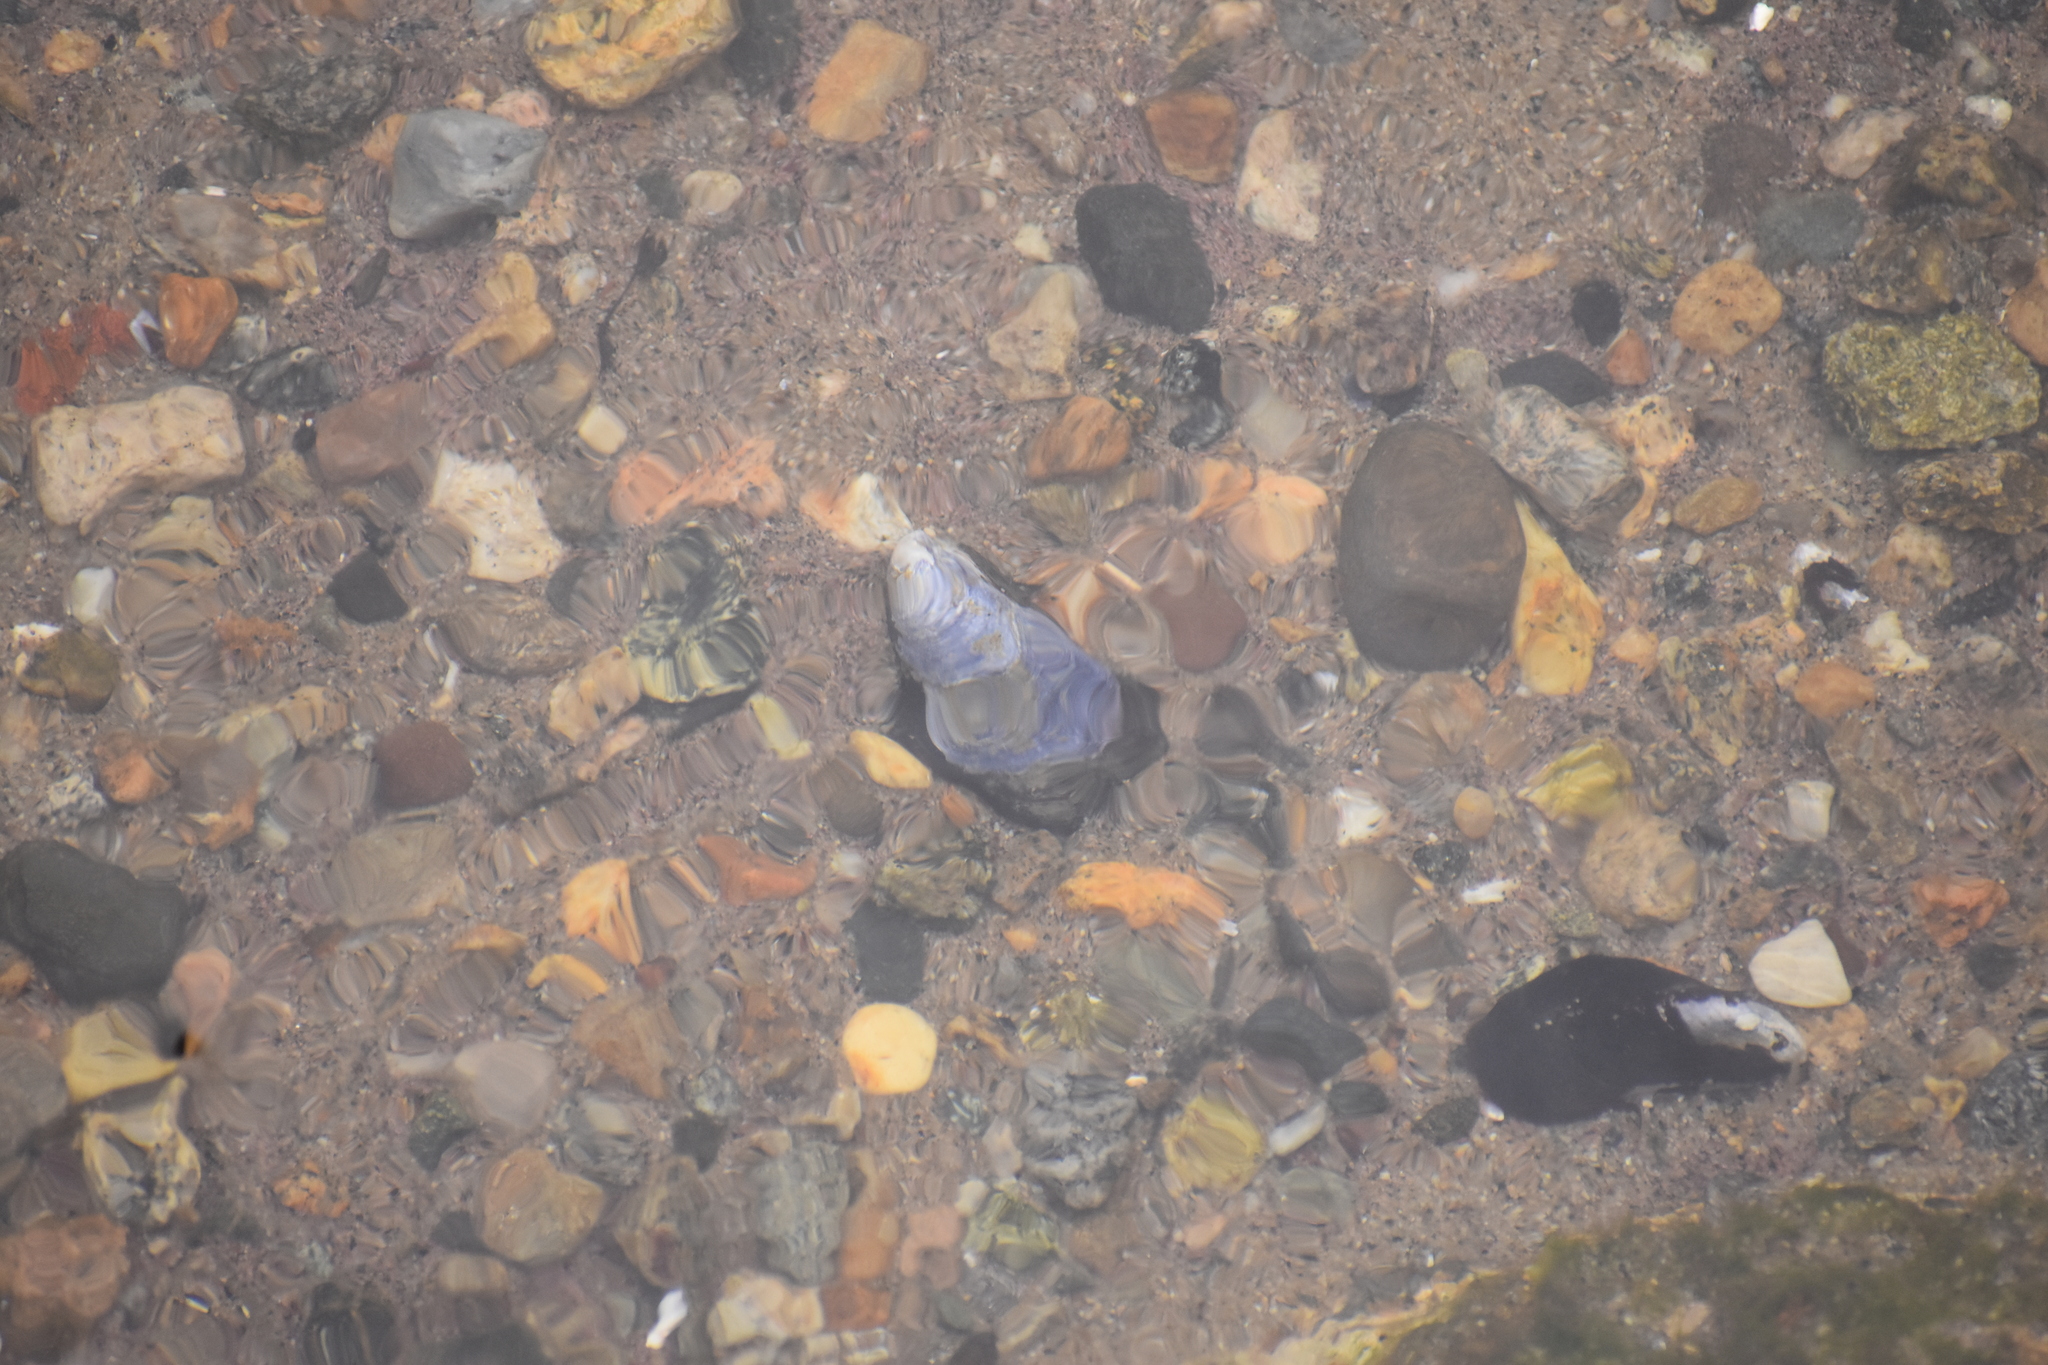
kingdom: Animalia
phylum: Mollusca
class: Bivalvia
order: Mytilida
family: Mytilidae
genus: Mytilus
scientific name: Mytilus edulis
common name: Blue mussel
